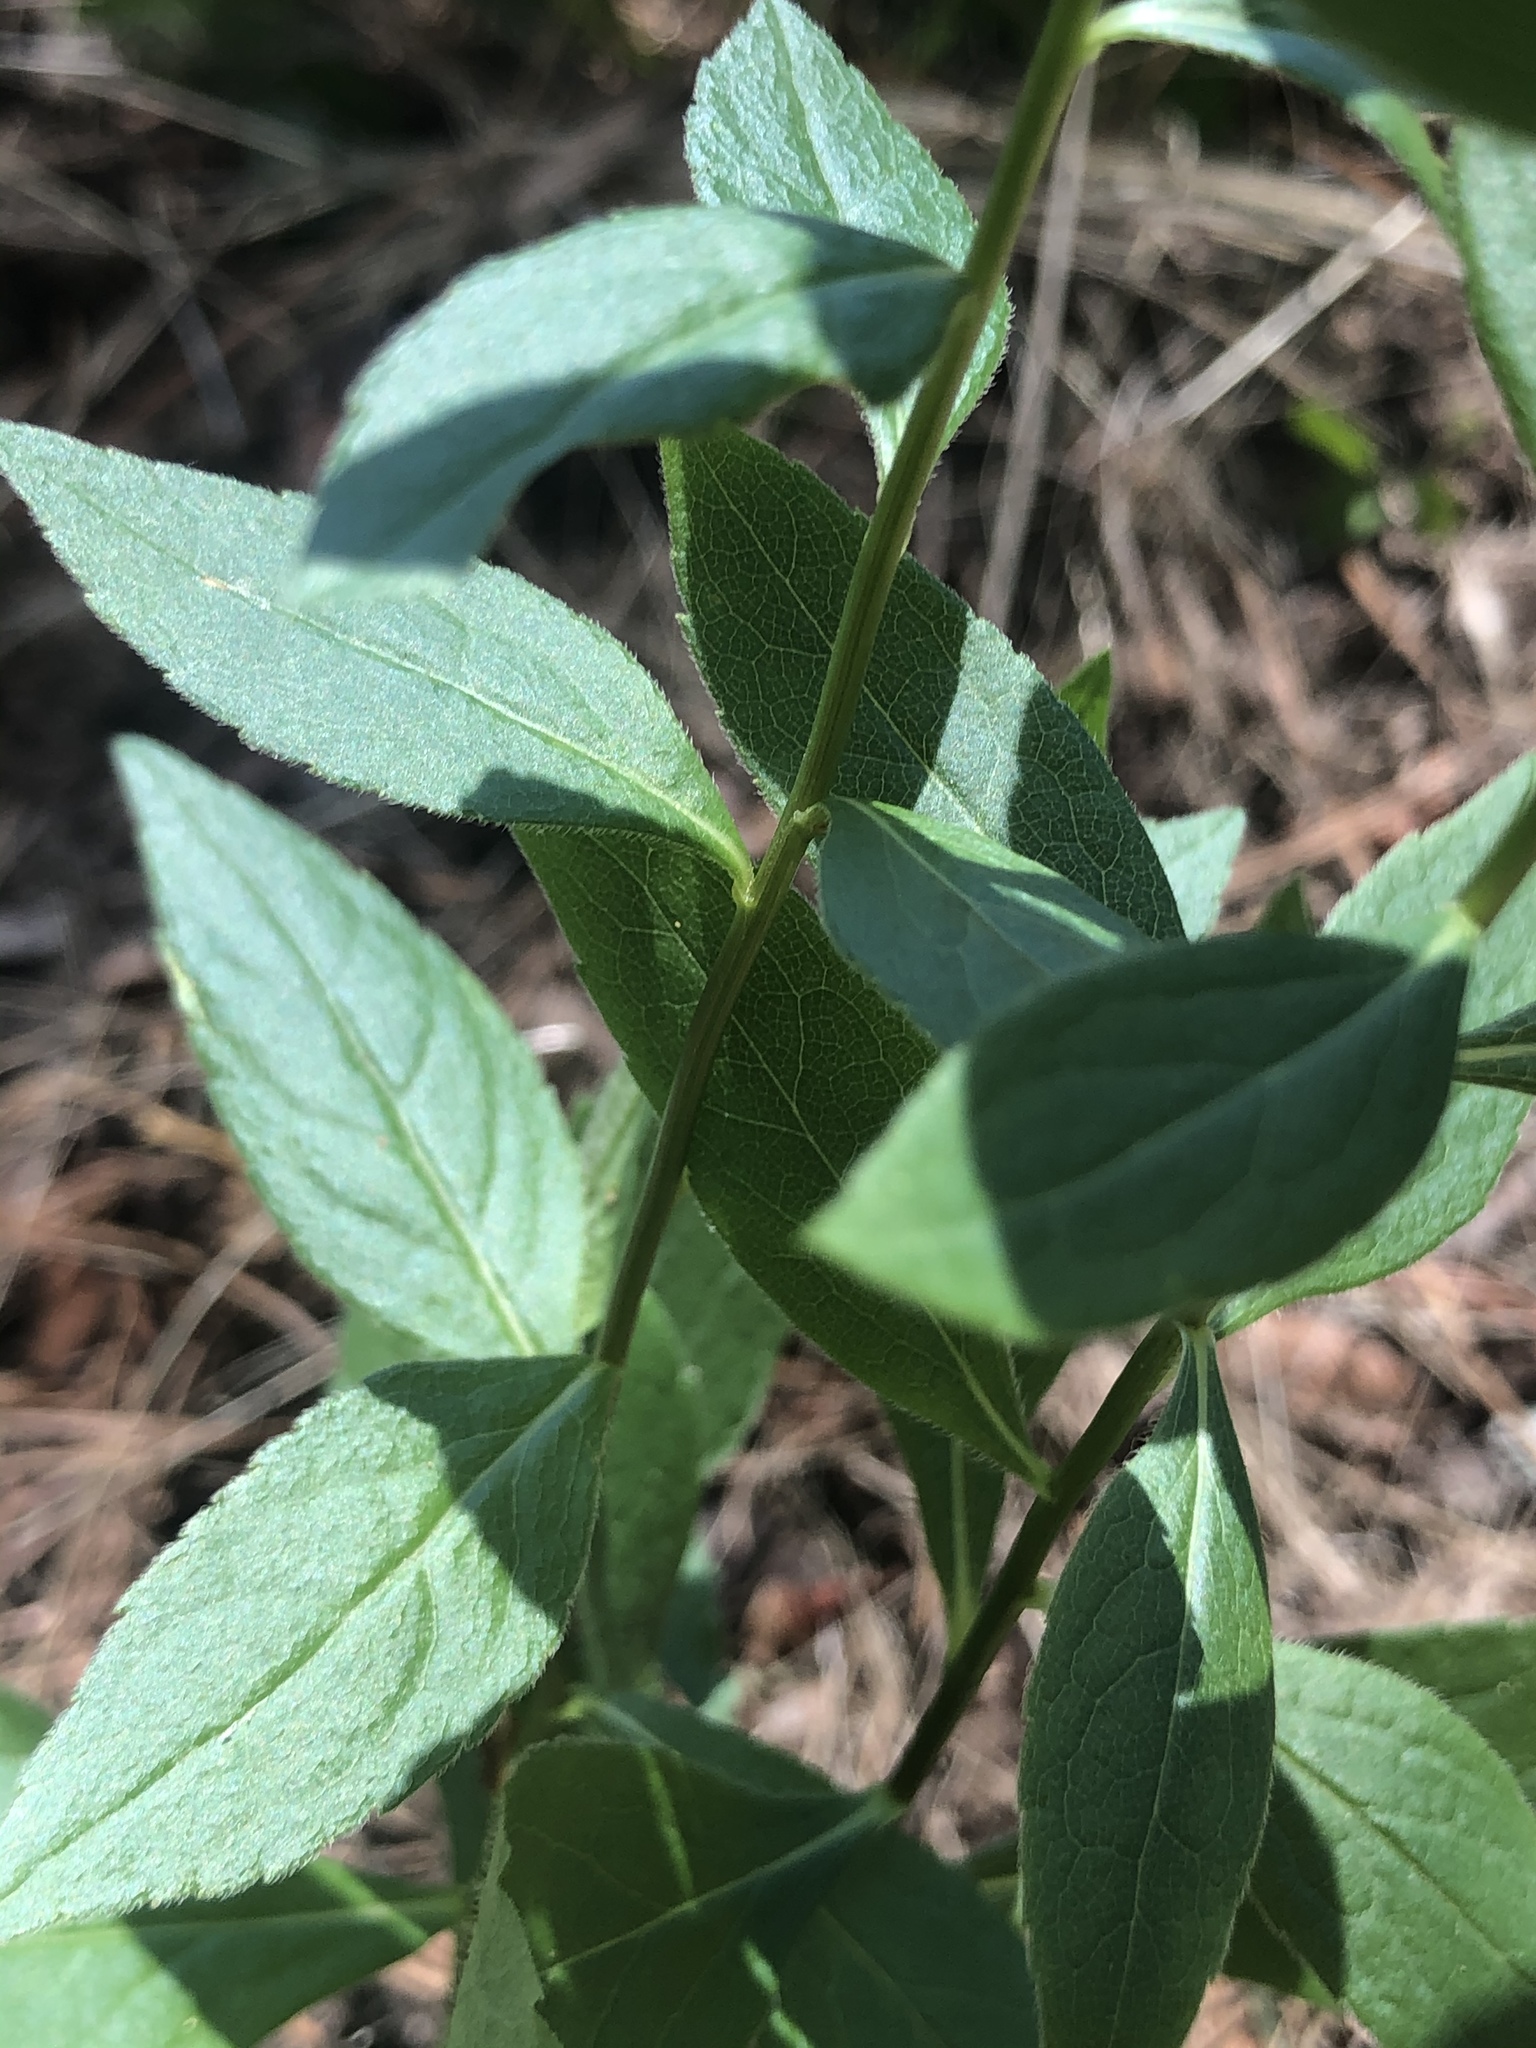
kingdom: Plantae
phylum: Tracheophyta
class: Magnoliopsida
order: Asterales
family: Asteraceae
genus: Solidago
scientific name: Solidago ulmifolia
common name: Elm-leaf goldenrod
